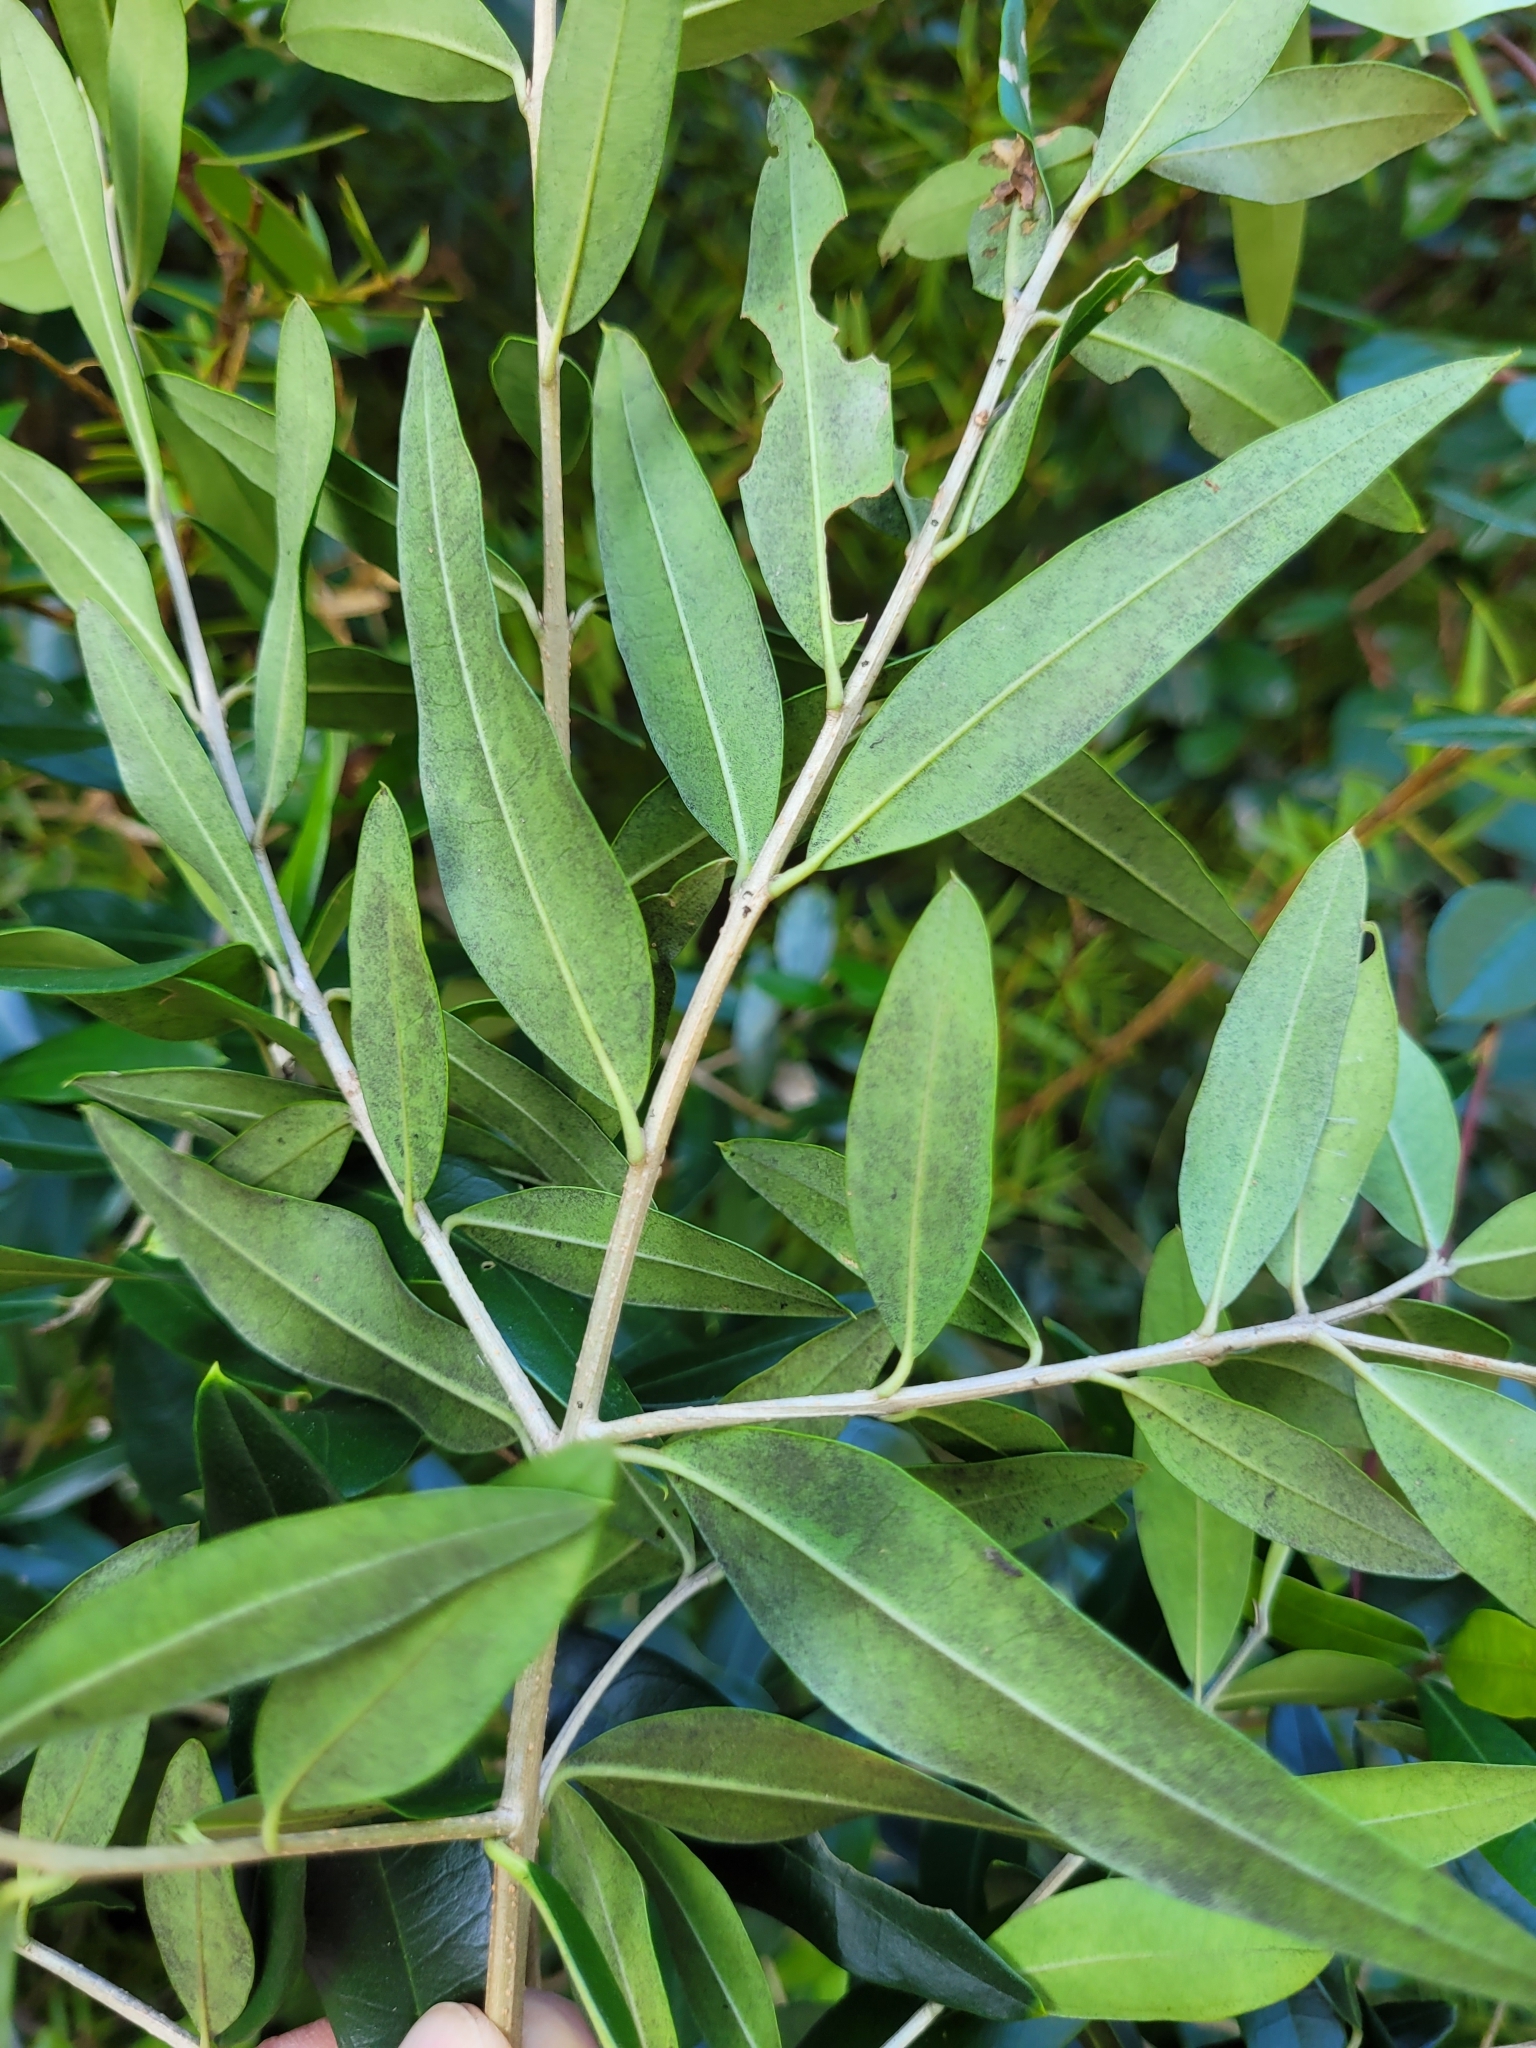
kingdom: Plantae
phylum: Tracheophyta
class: Magnoliopsida
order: Lamiales
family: Oleaceae
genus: Olea
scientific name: Olea europaea
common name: Olive
